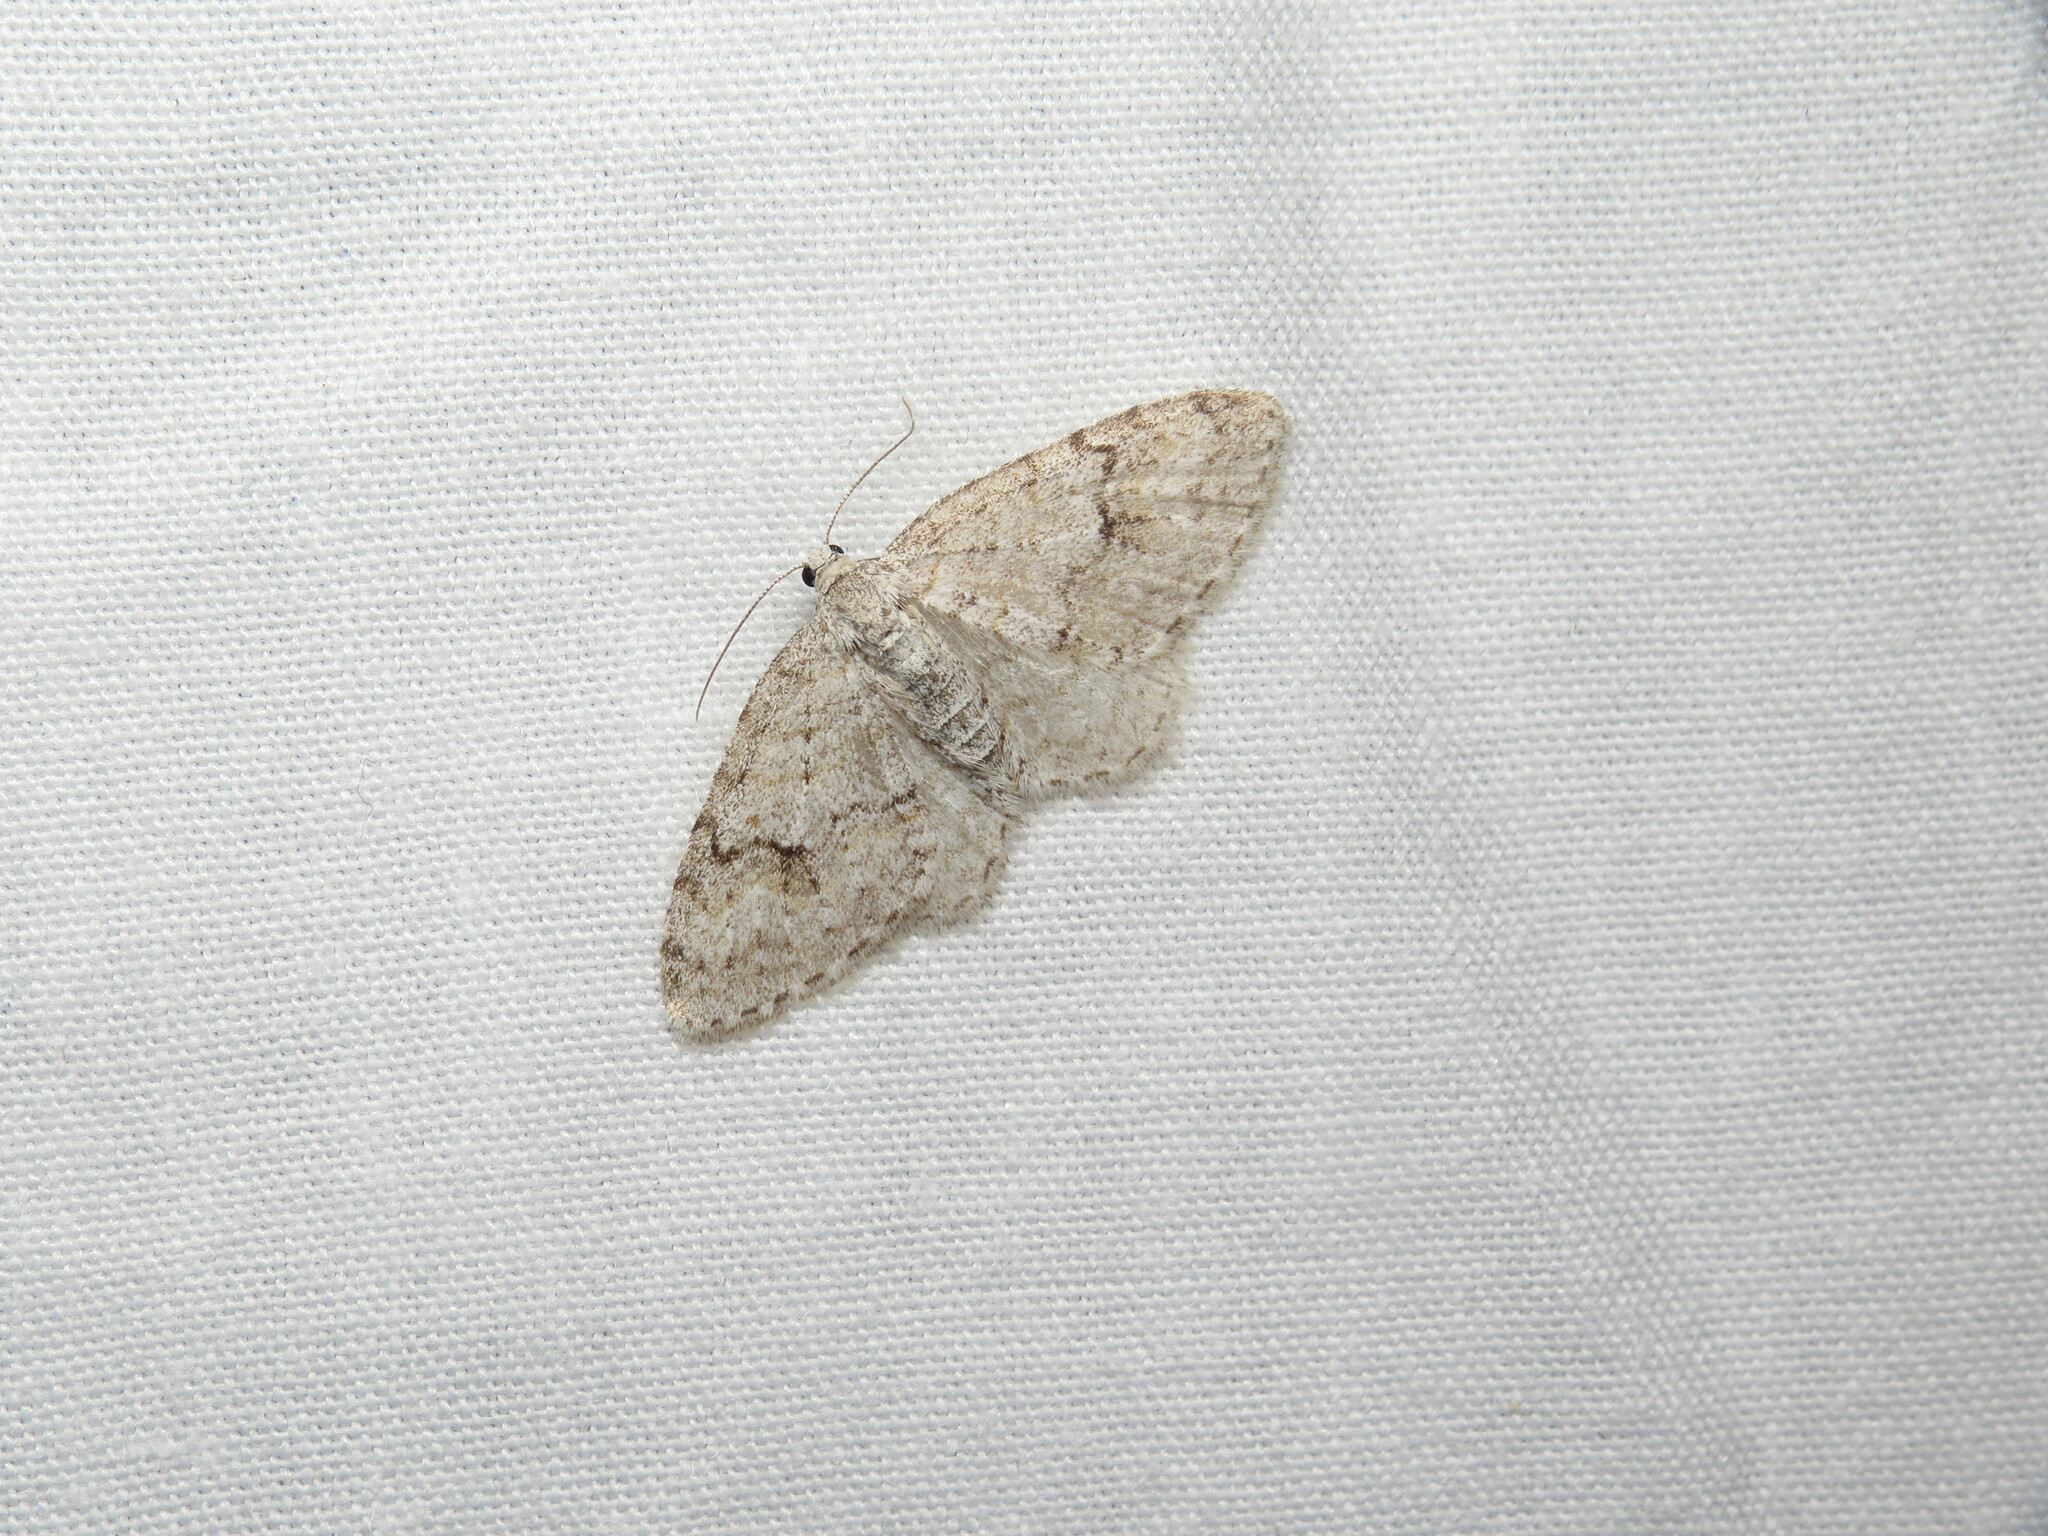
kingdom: Animalia
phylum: Arthropoda
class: Insecta
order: Lepidoptera
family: Geometridae
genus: Venusia
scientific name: Venusia comptaria
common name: Brown-shaded carpet
